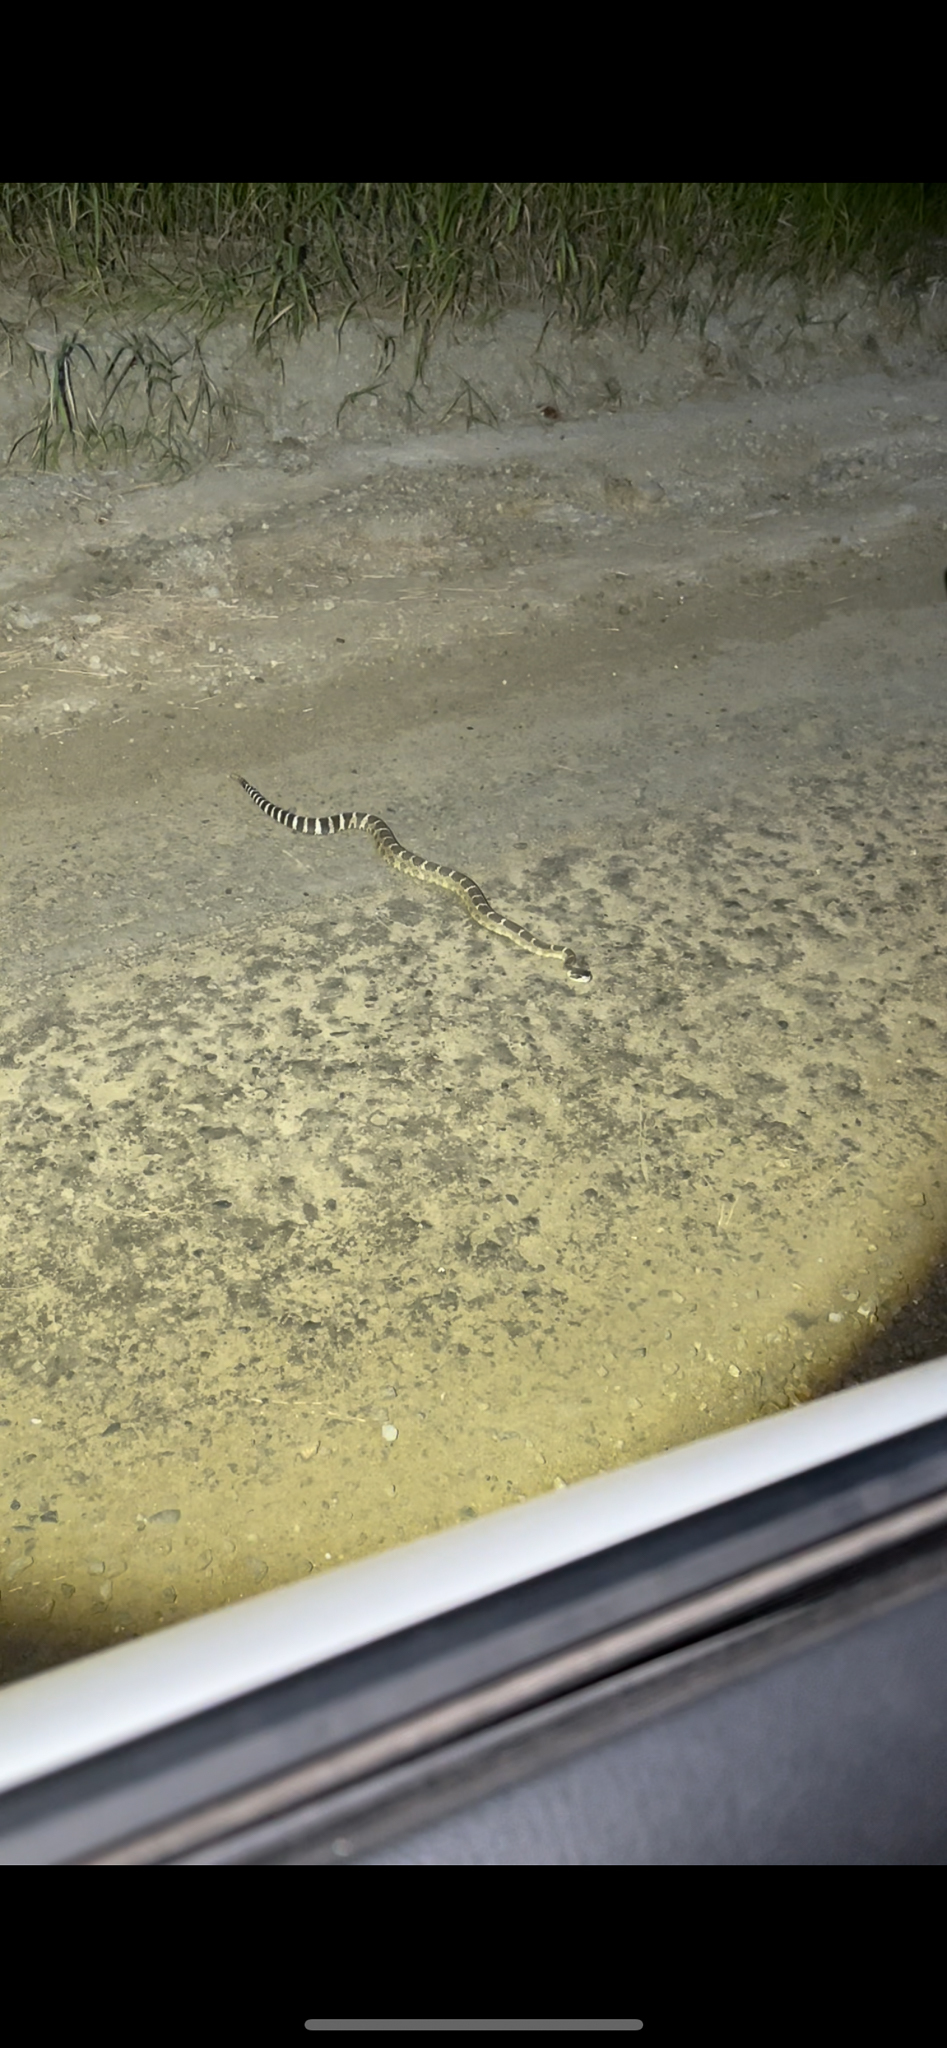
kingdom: Animalia
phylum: Chordata
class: Squamata
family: Viperidae
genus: Crotalus
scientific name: Crotalus oreganus
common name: Abyssus
